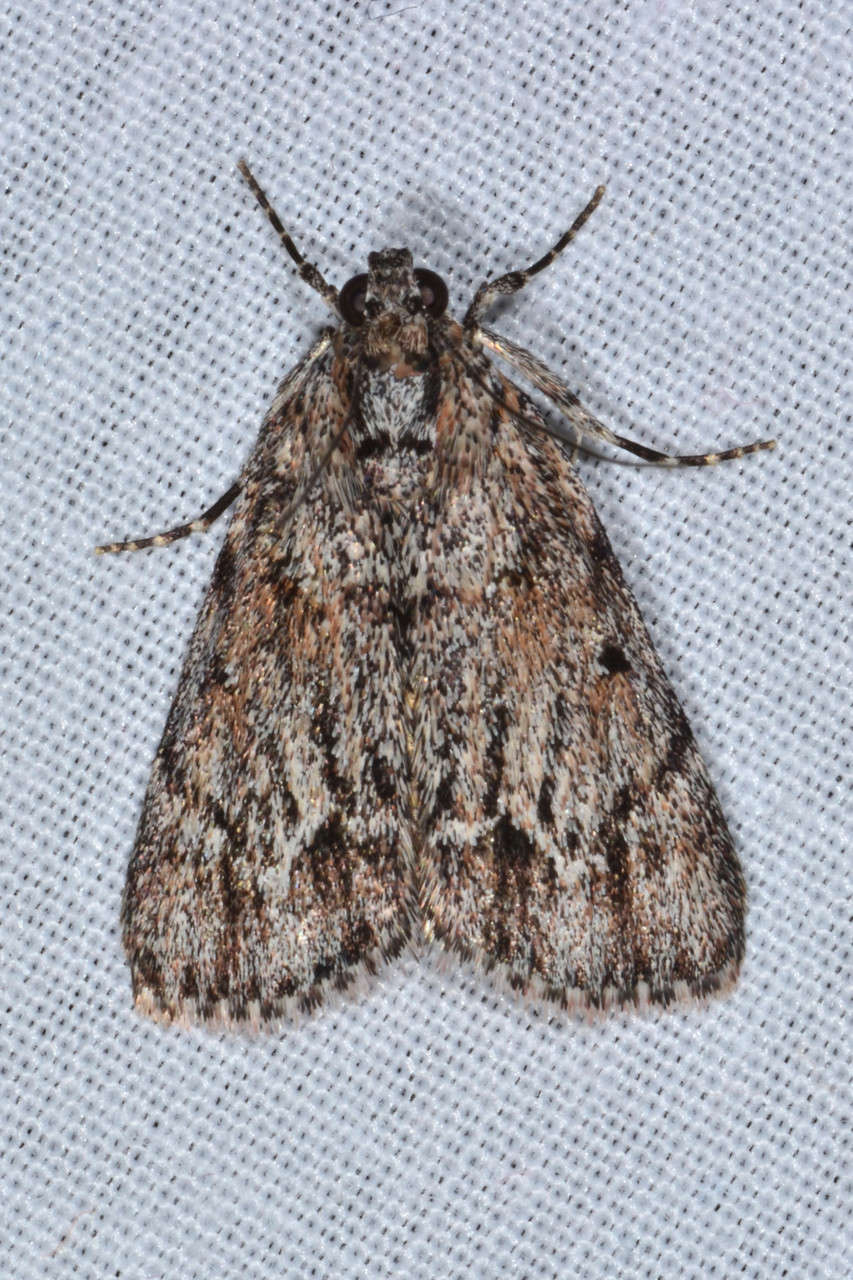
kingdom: Animalia
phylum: Arthropoda
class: Insecta
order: Lepidoptera
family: Pyralidae
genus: Spectrotrota
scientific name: Spectrotrota fimbrialis
